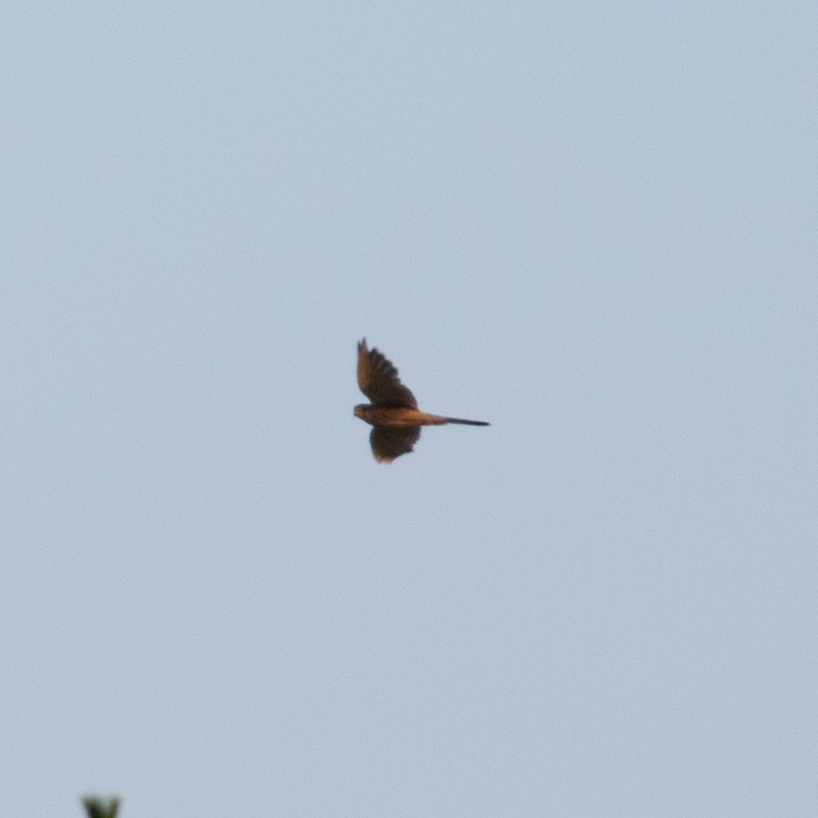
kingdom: Animalia
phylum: Chordata
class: Aves
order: Falconiformes
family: Falconidae
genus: Falco
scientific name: Falco tinnunculus
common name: Common kestrel
